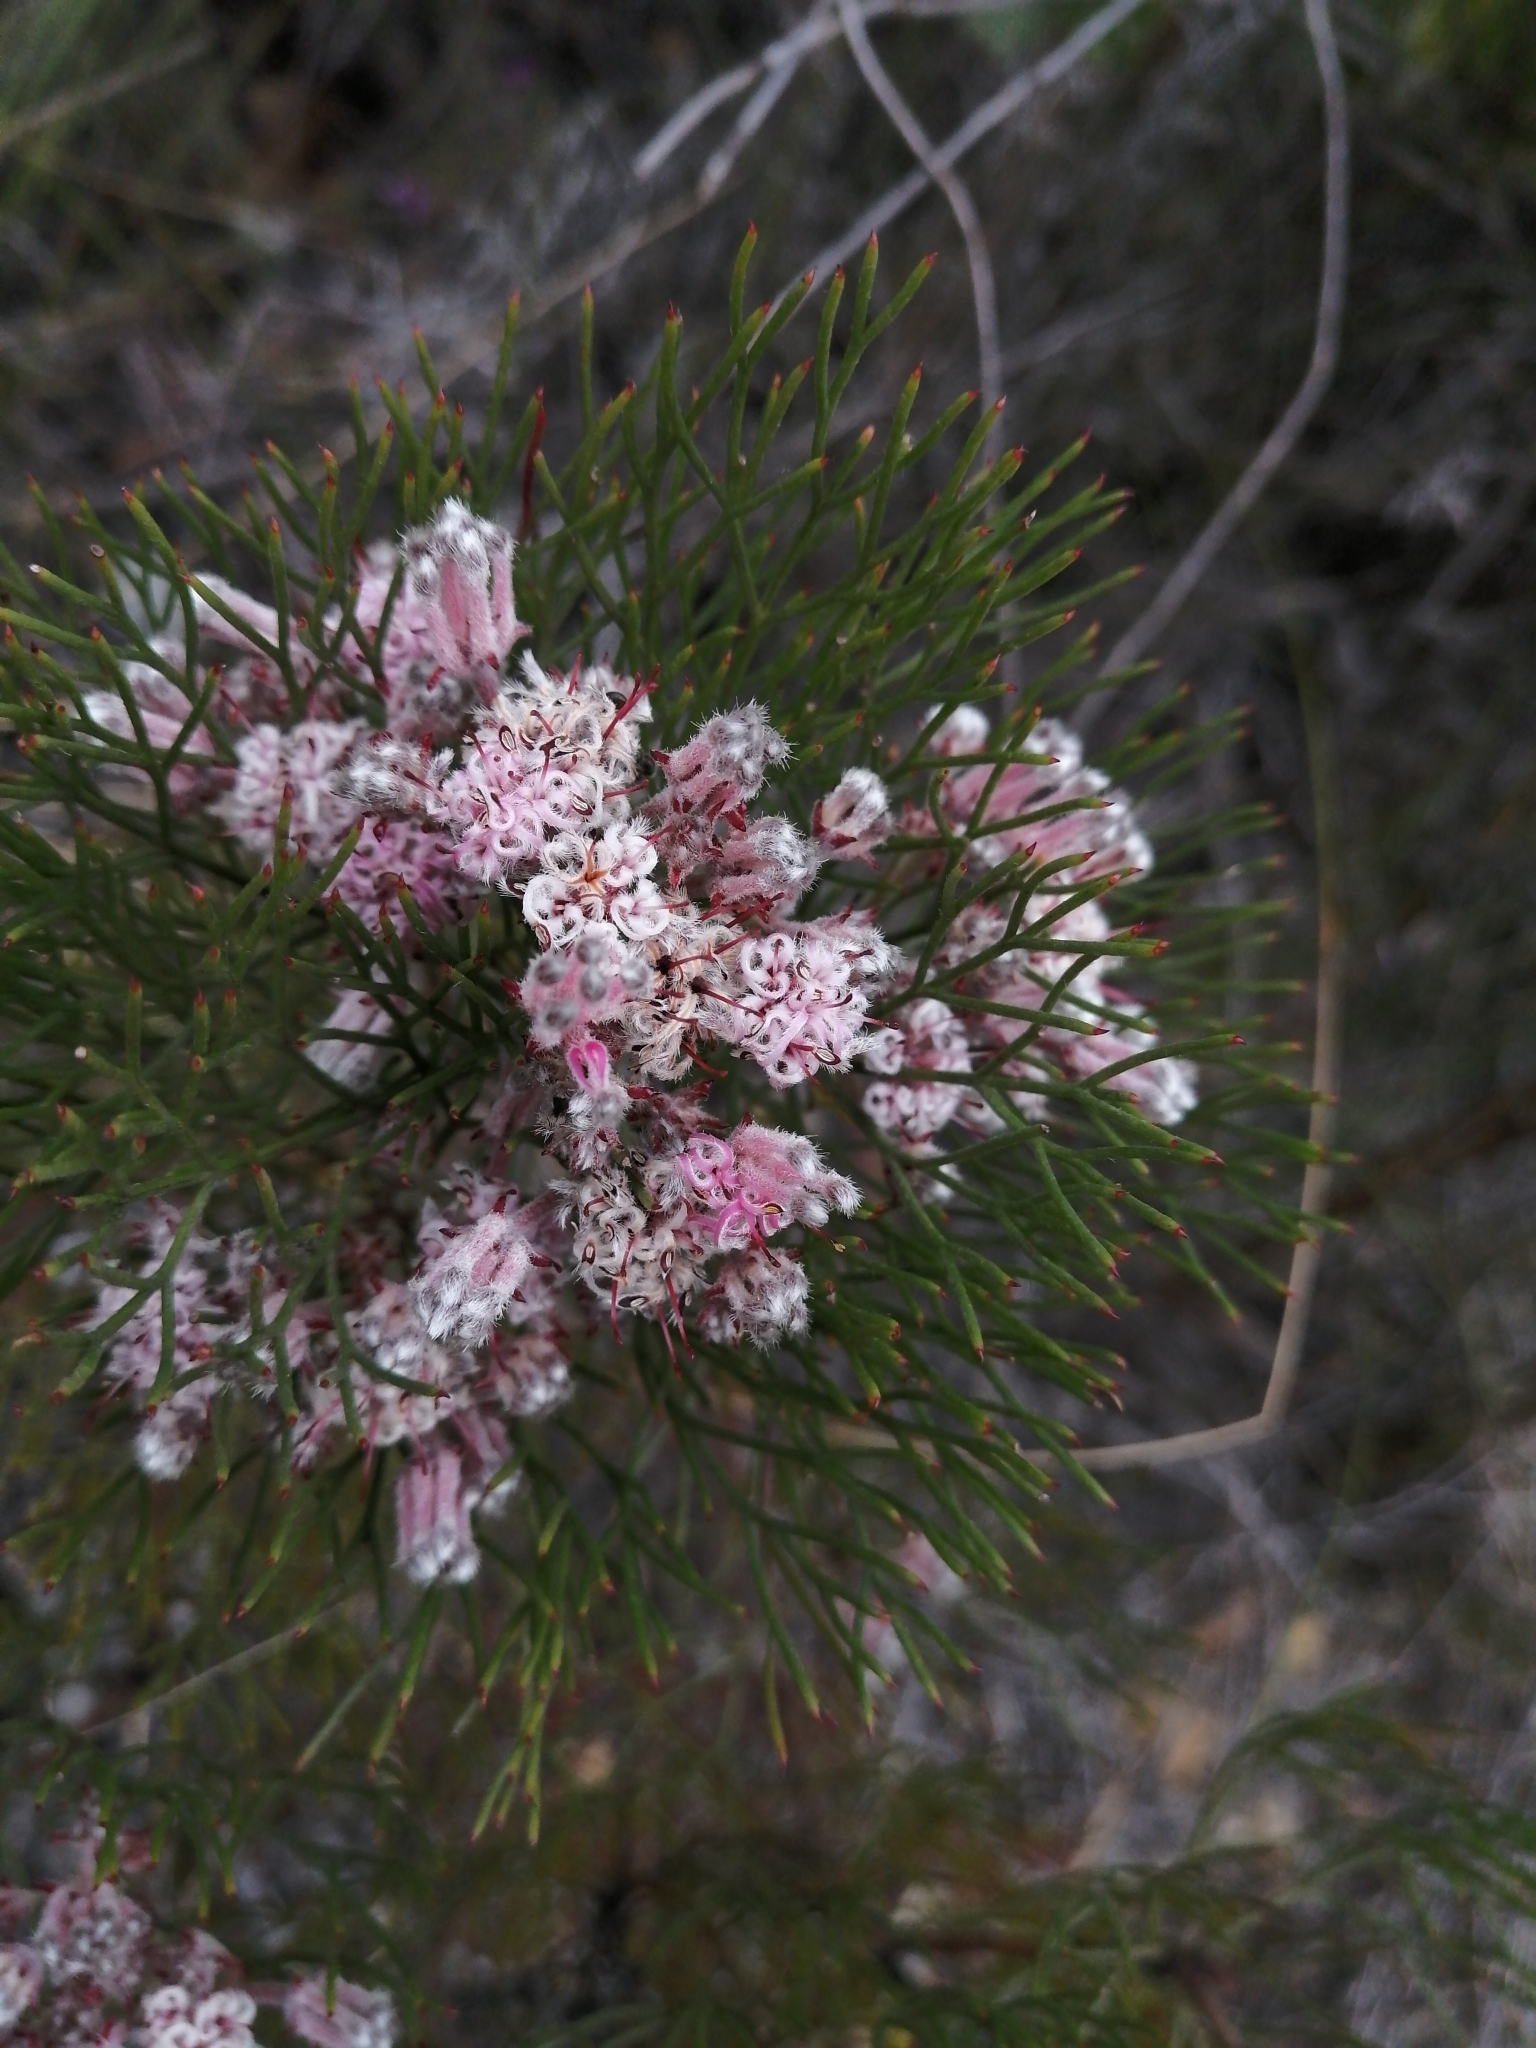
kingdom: Plantae
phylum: Tracheophyta
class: Magnoliopsida
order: Proteales
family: Proteaceae
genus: Serruria
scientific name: Serruria fasciflora
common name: Common pin spiderhead
